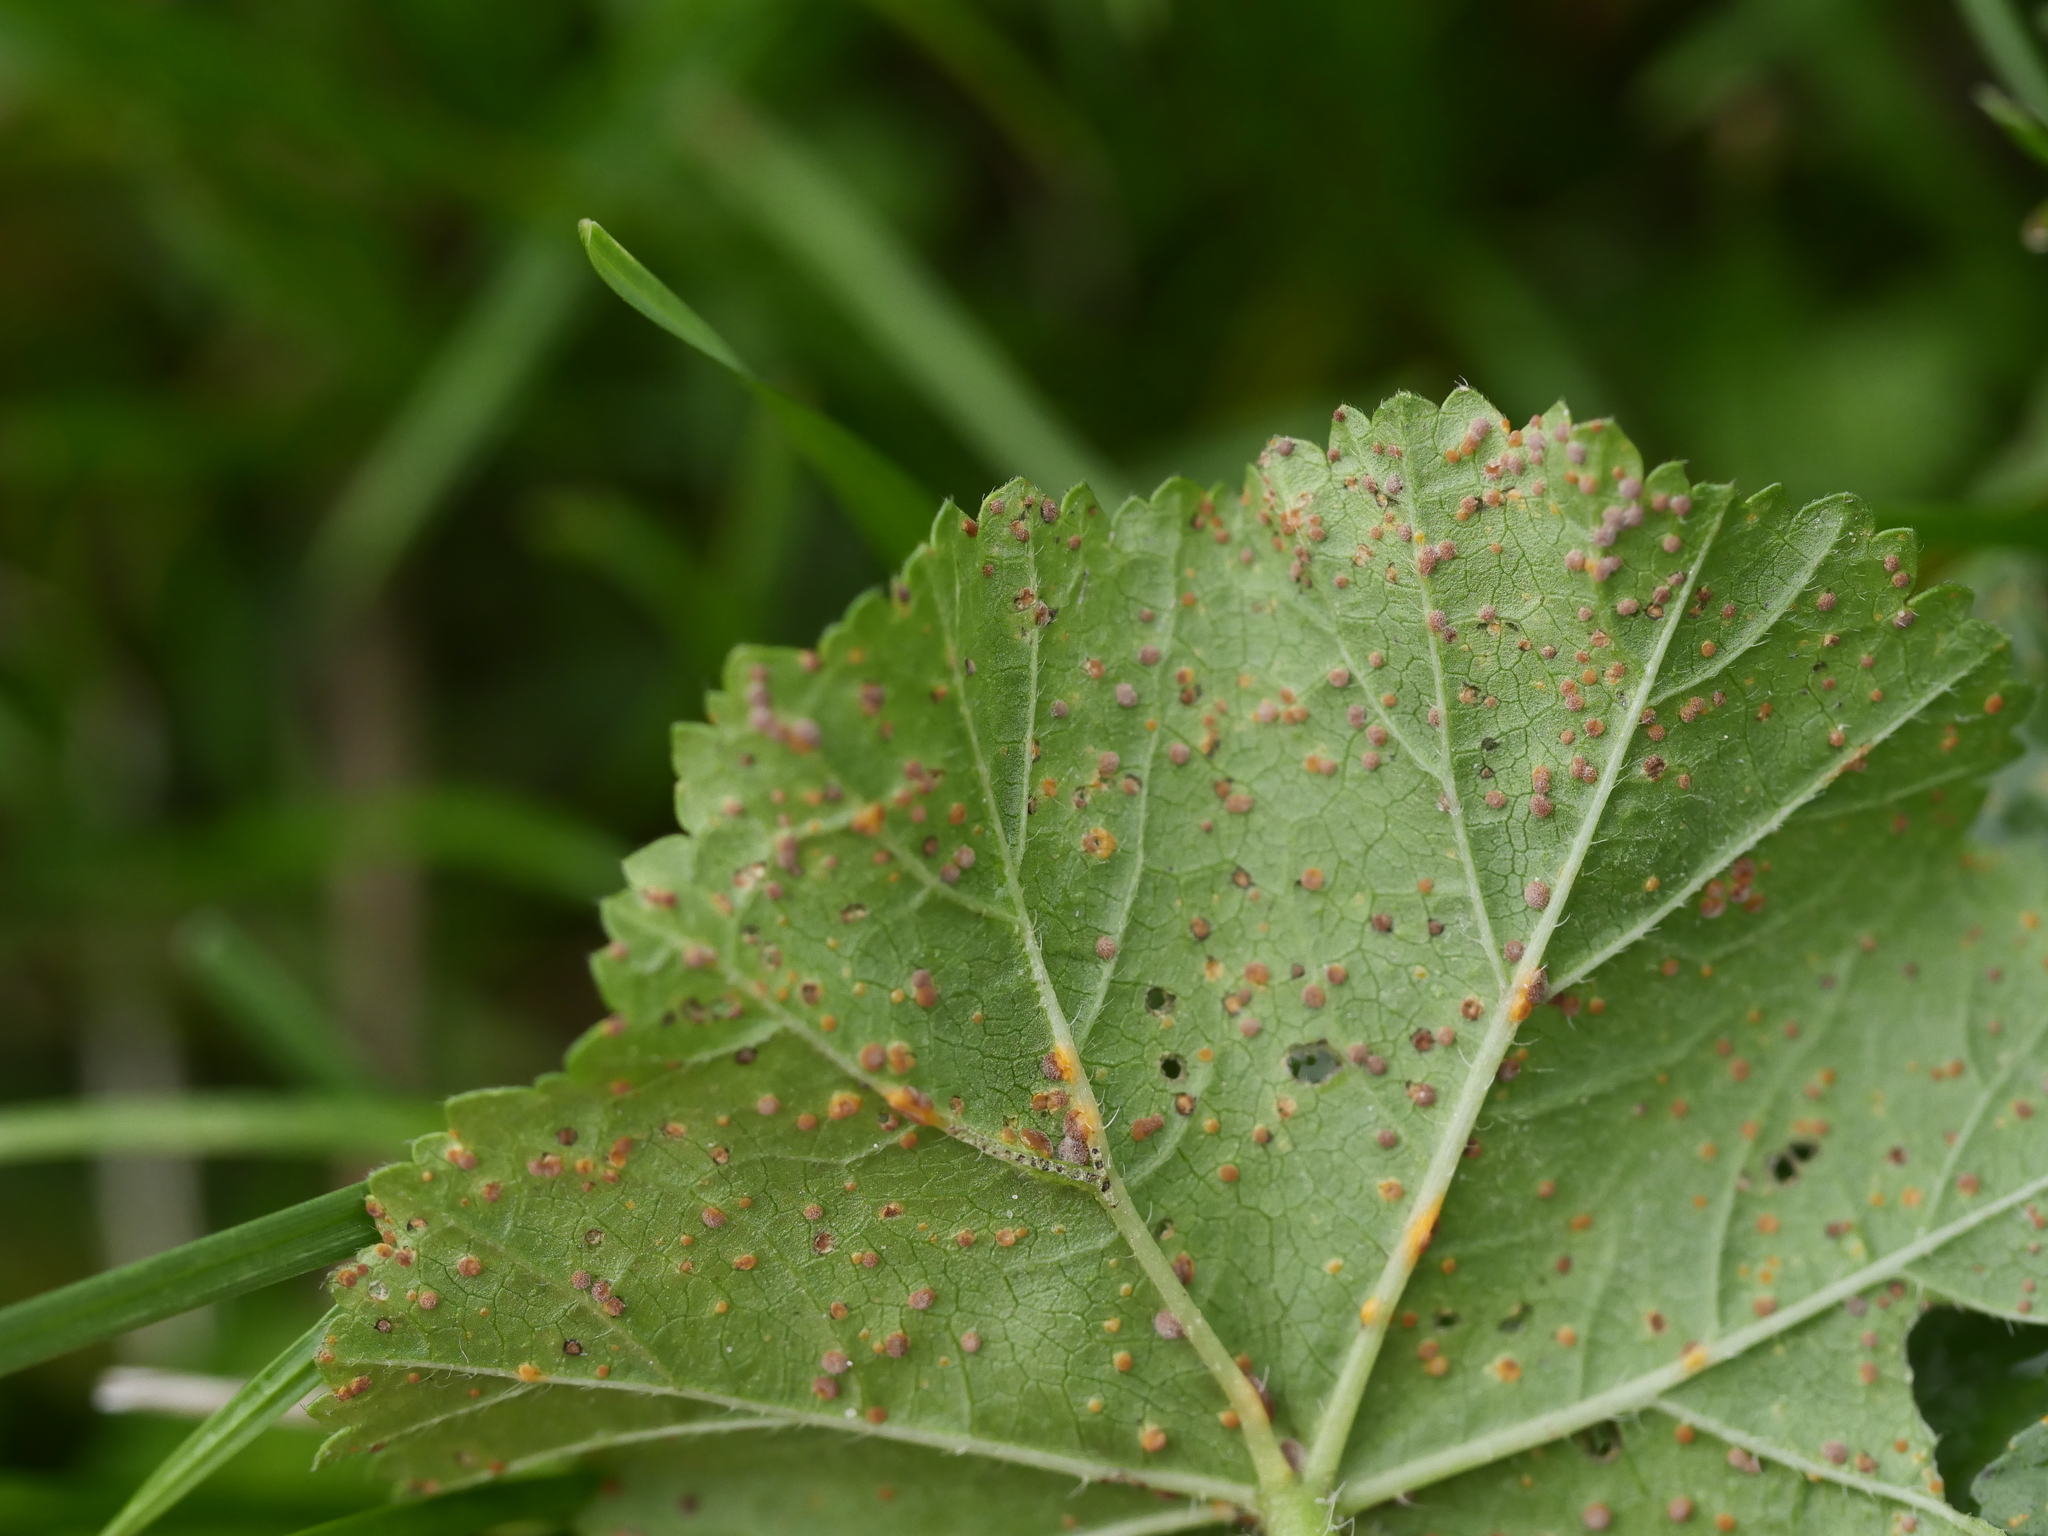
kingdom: Fungi
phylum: Basidiomycota
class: Pucciniomycetes
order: Pucciniales
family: Pucciniaceae
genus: Puccinia
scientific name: Puccinia malvacearum
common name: Hollyhock rust
